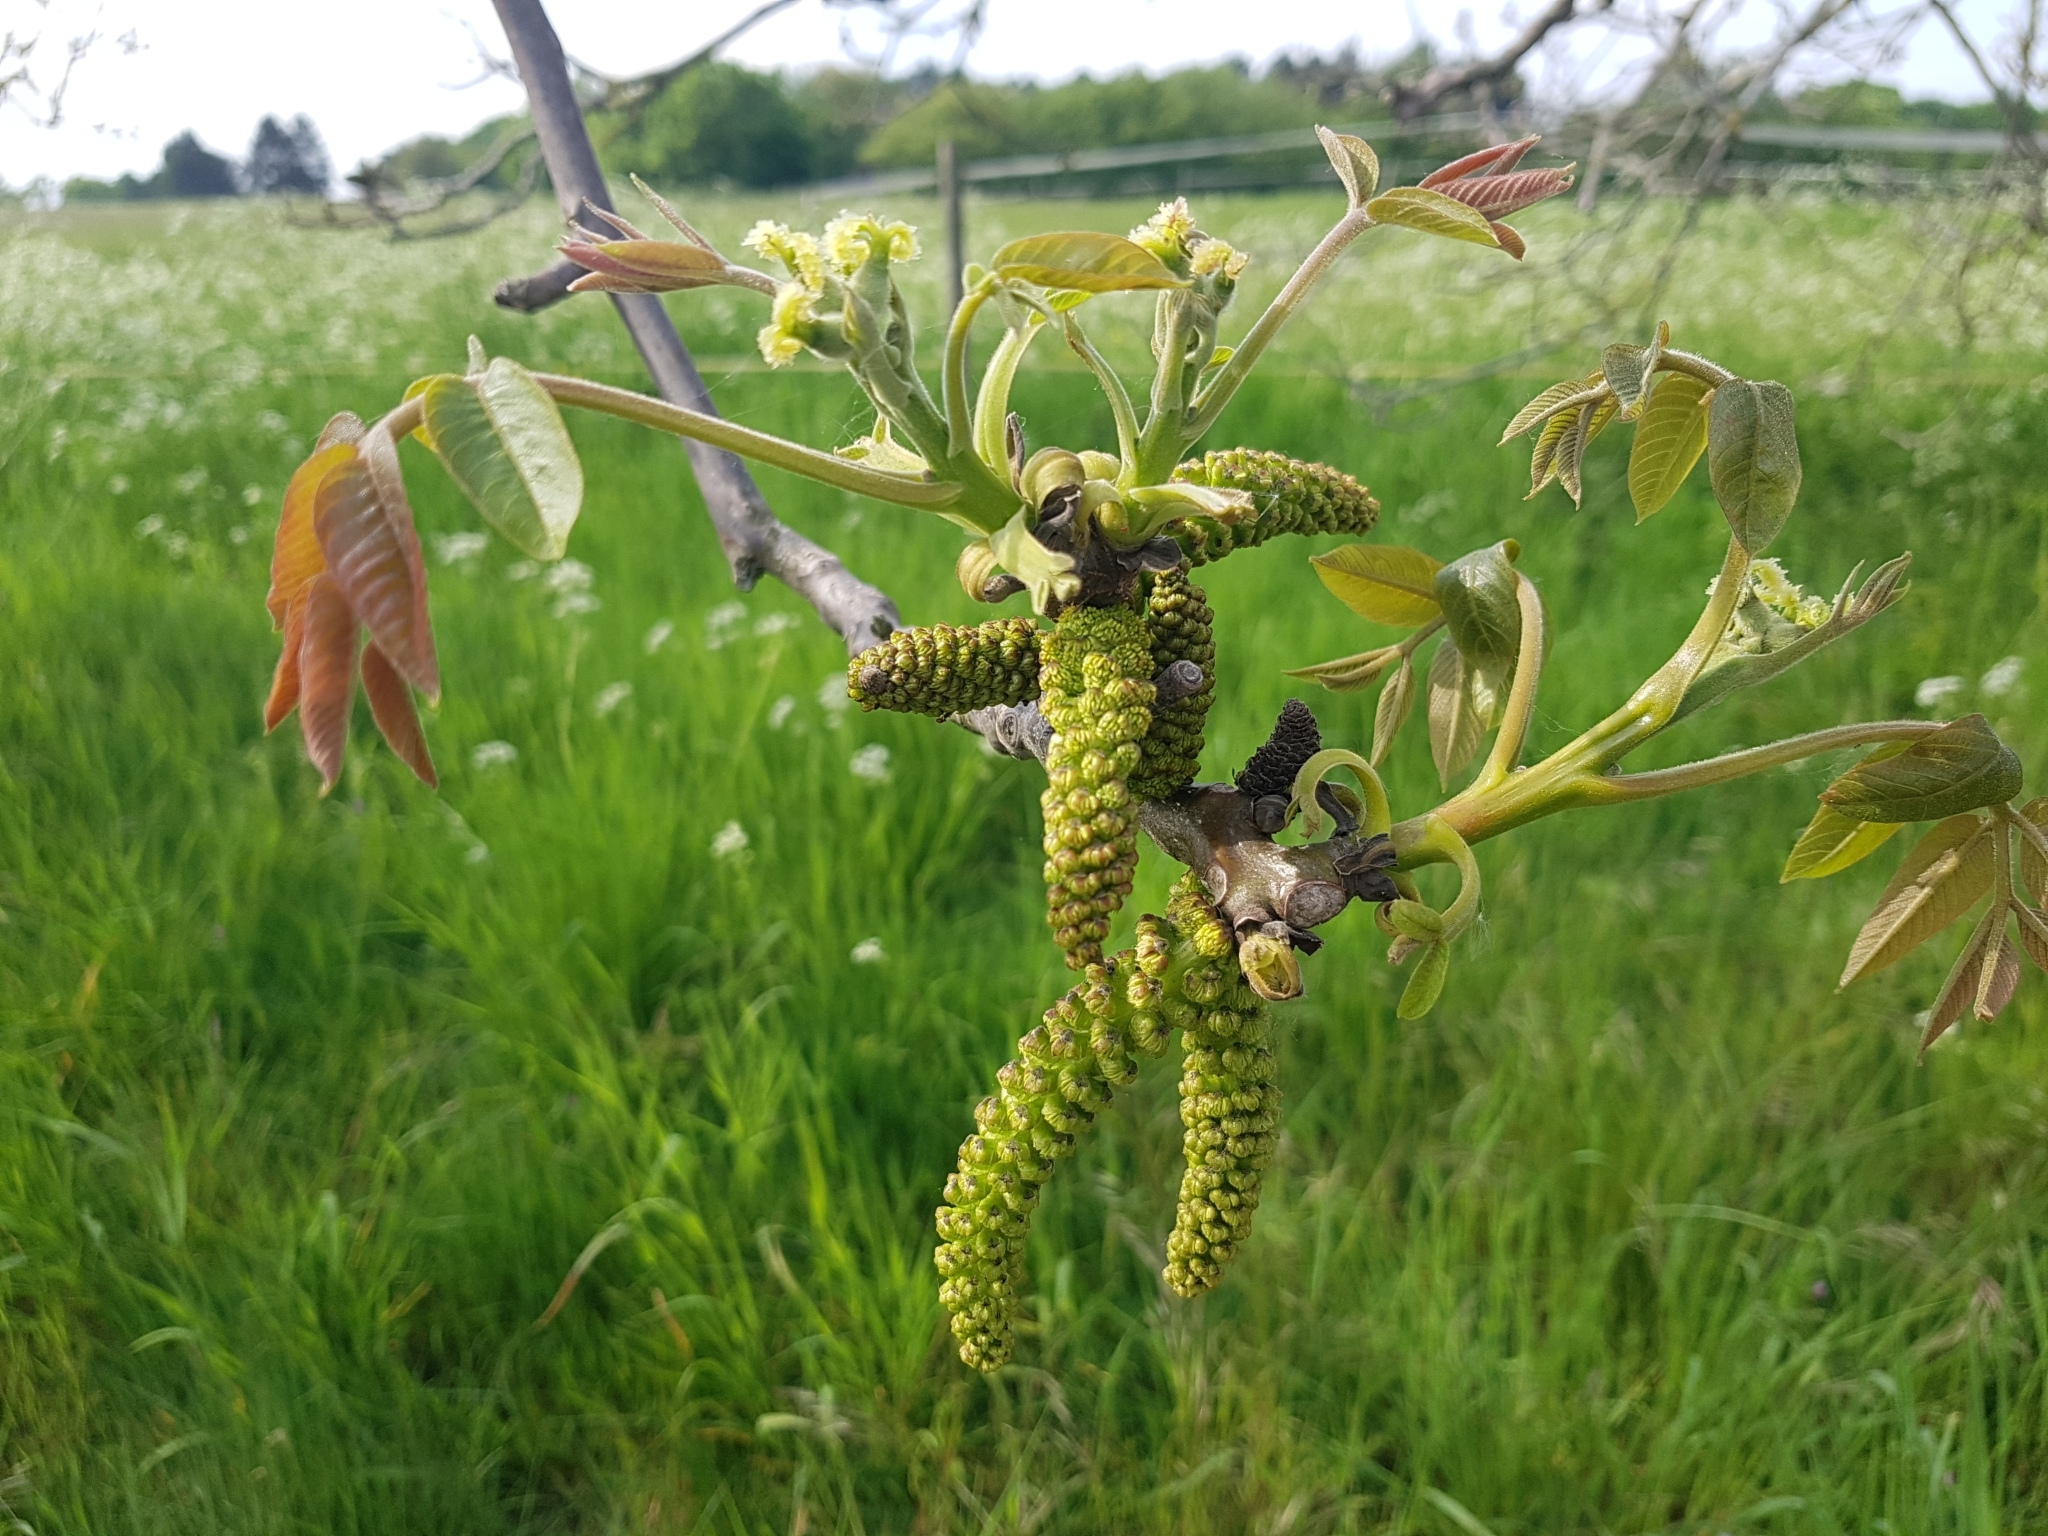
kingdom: Plantae
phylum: Tracheophyta
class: Magnoliopsida
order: Fagales
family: Juglandaceae
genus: Juglans
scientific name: Juglans regia
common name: Walnut
